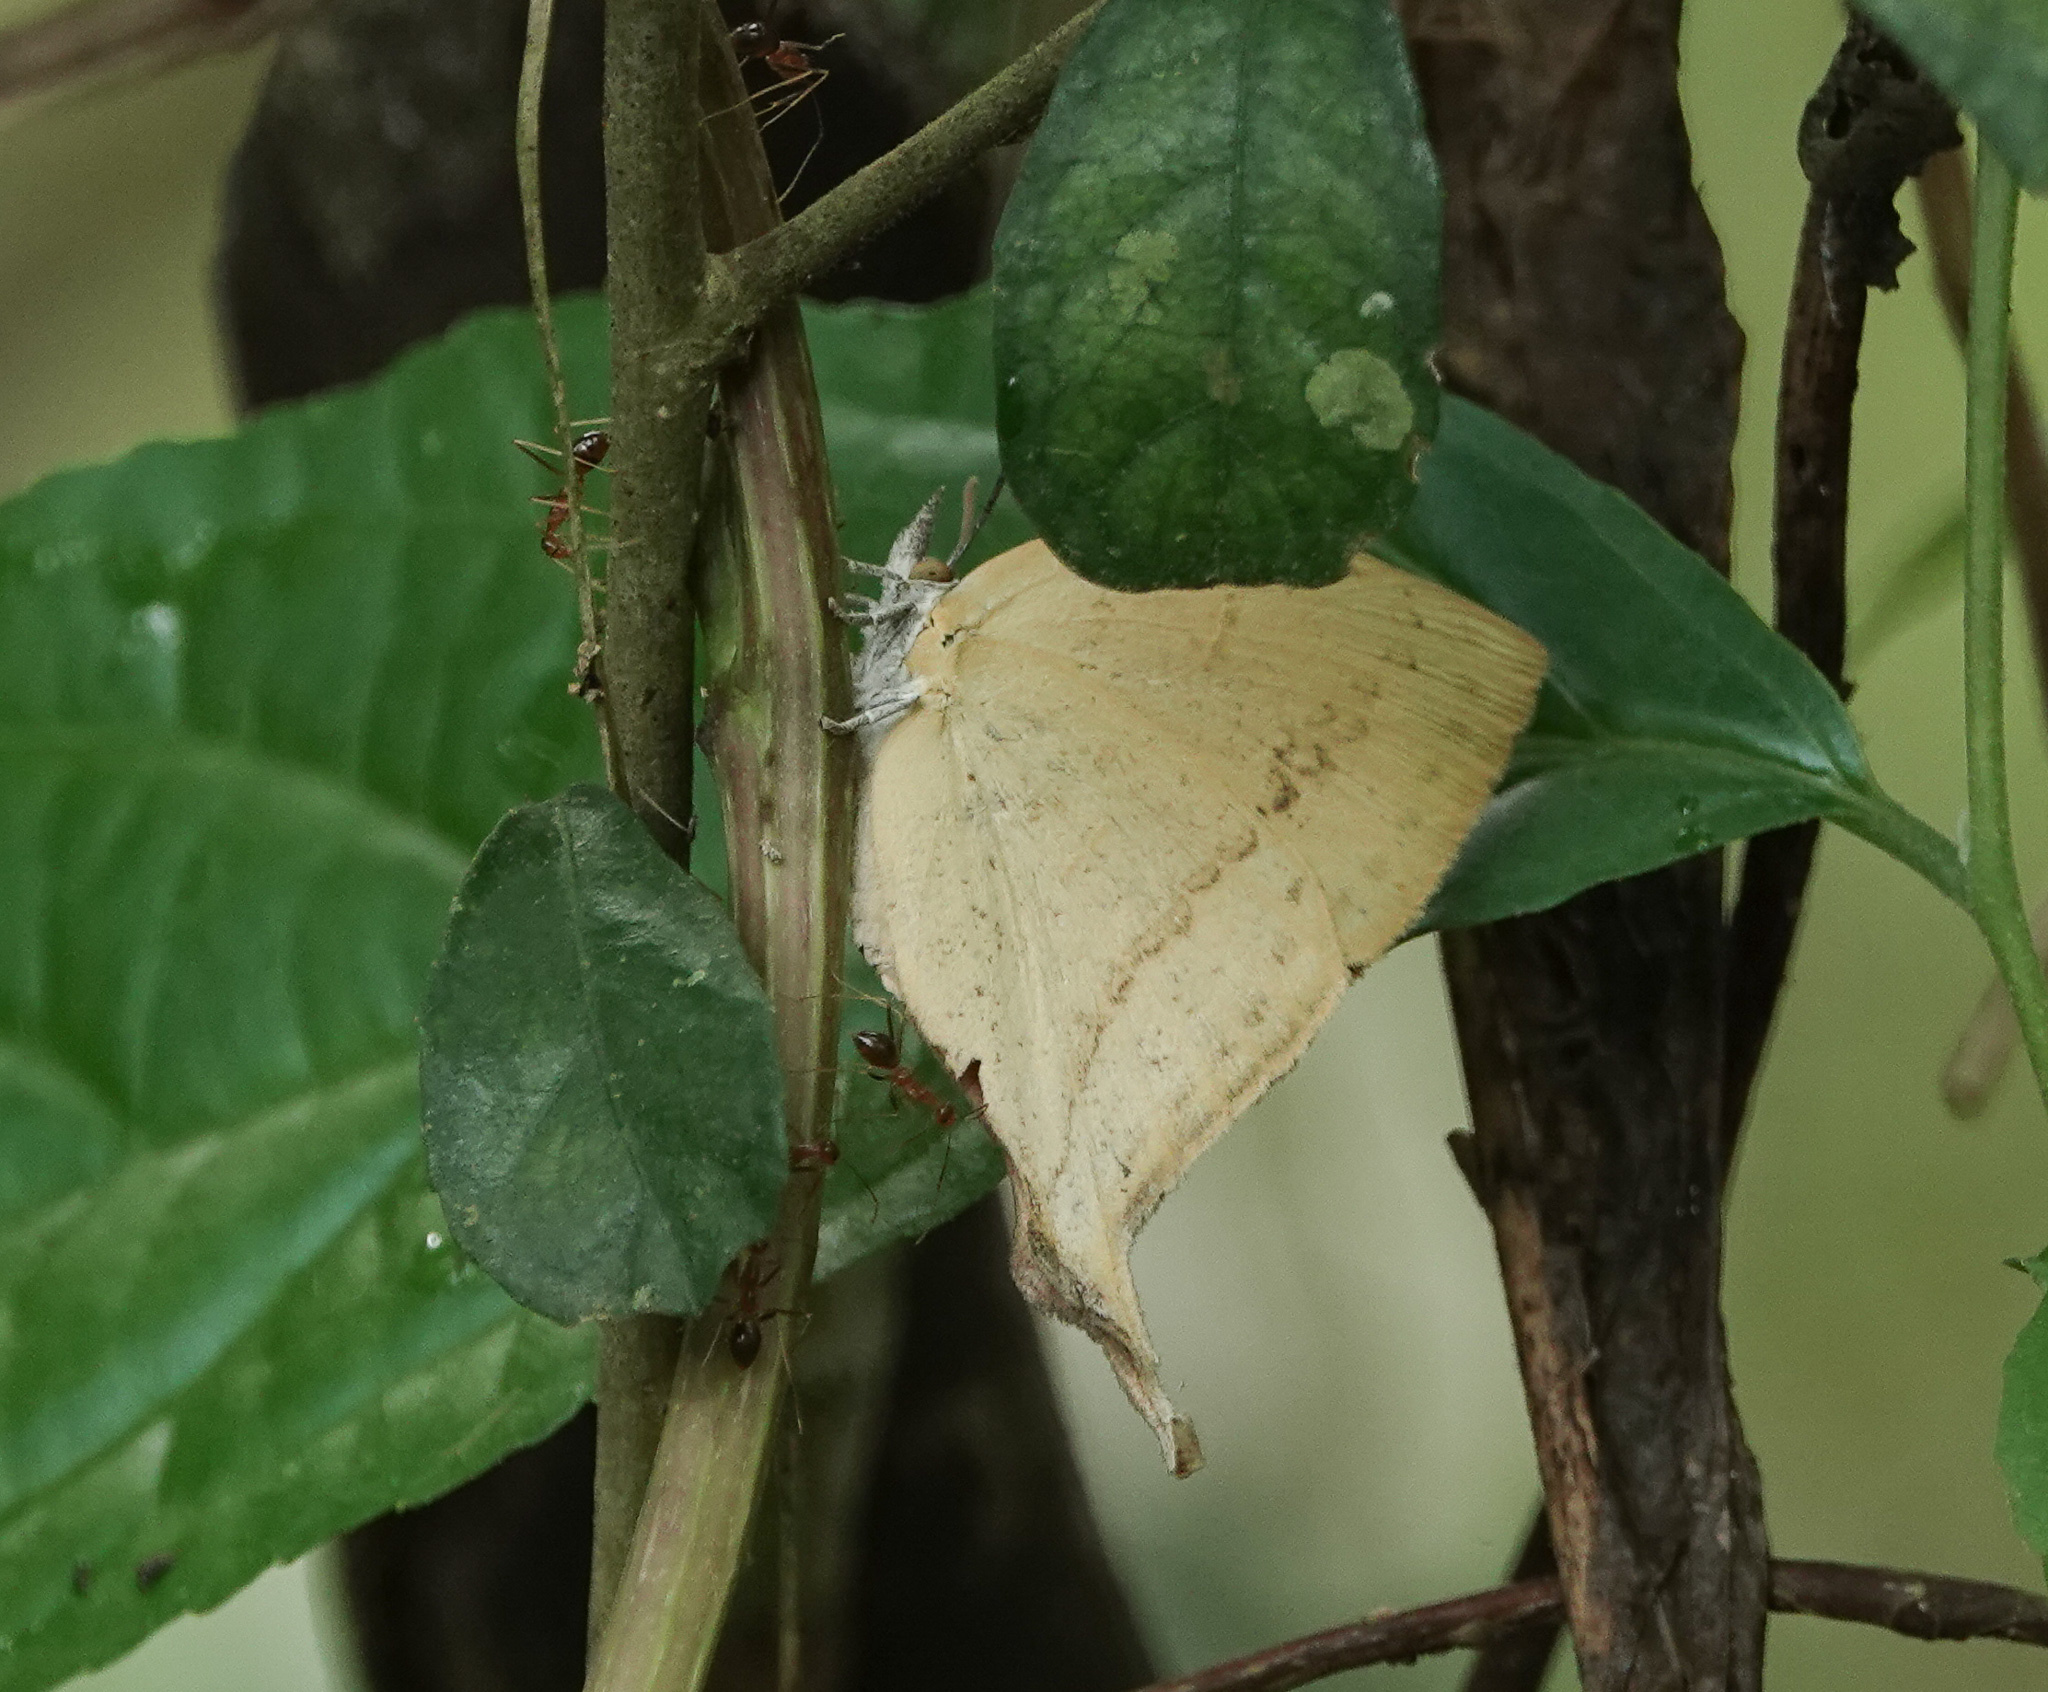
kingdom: Animalia
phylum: Arthropoda
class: Insecta
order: Lepidoptera
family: Lycaenidae
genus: Loxura
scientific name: Loxura atymnus
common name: Common yamfly
